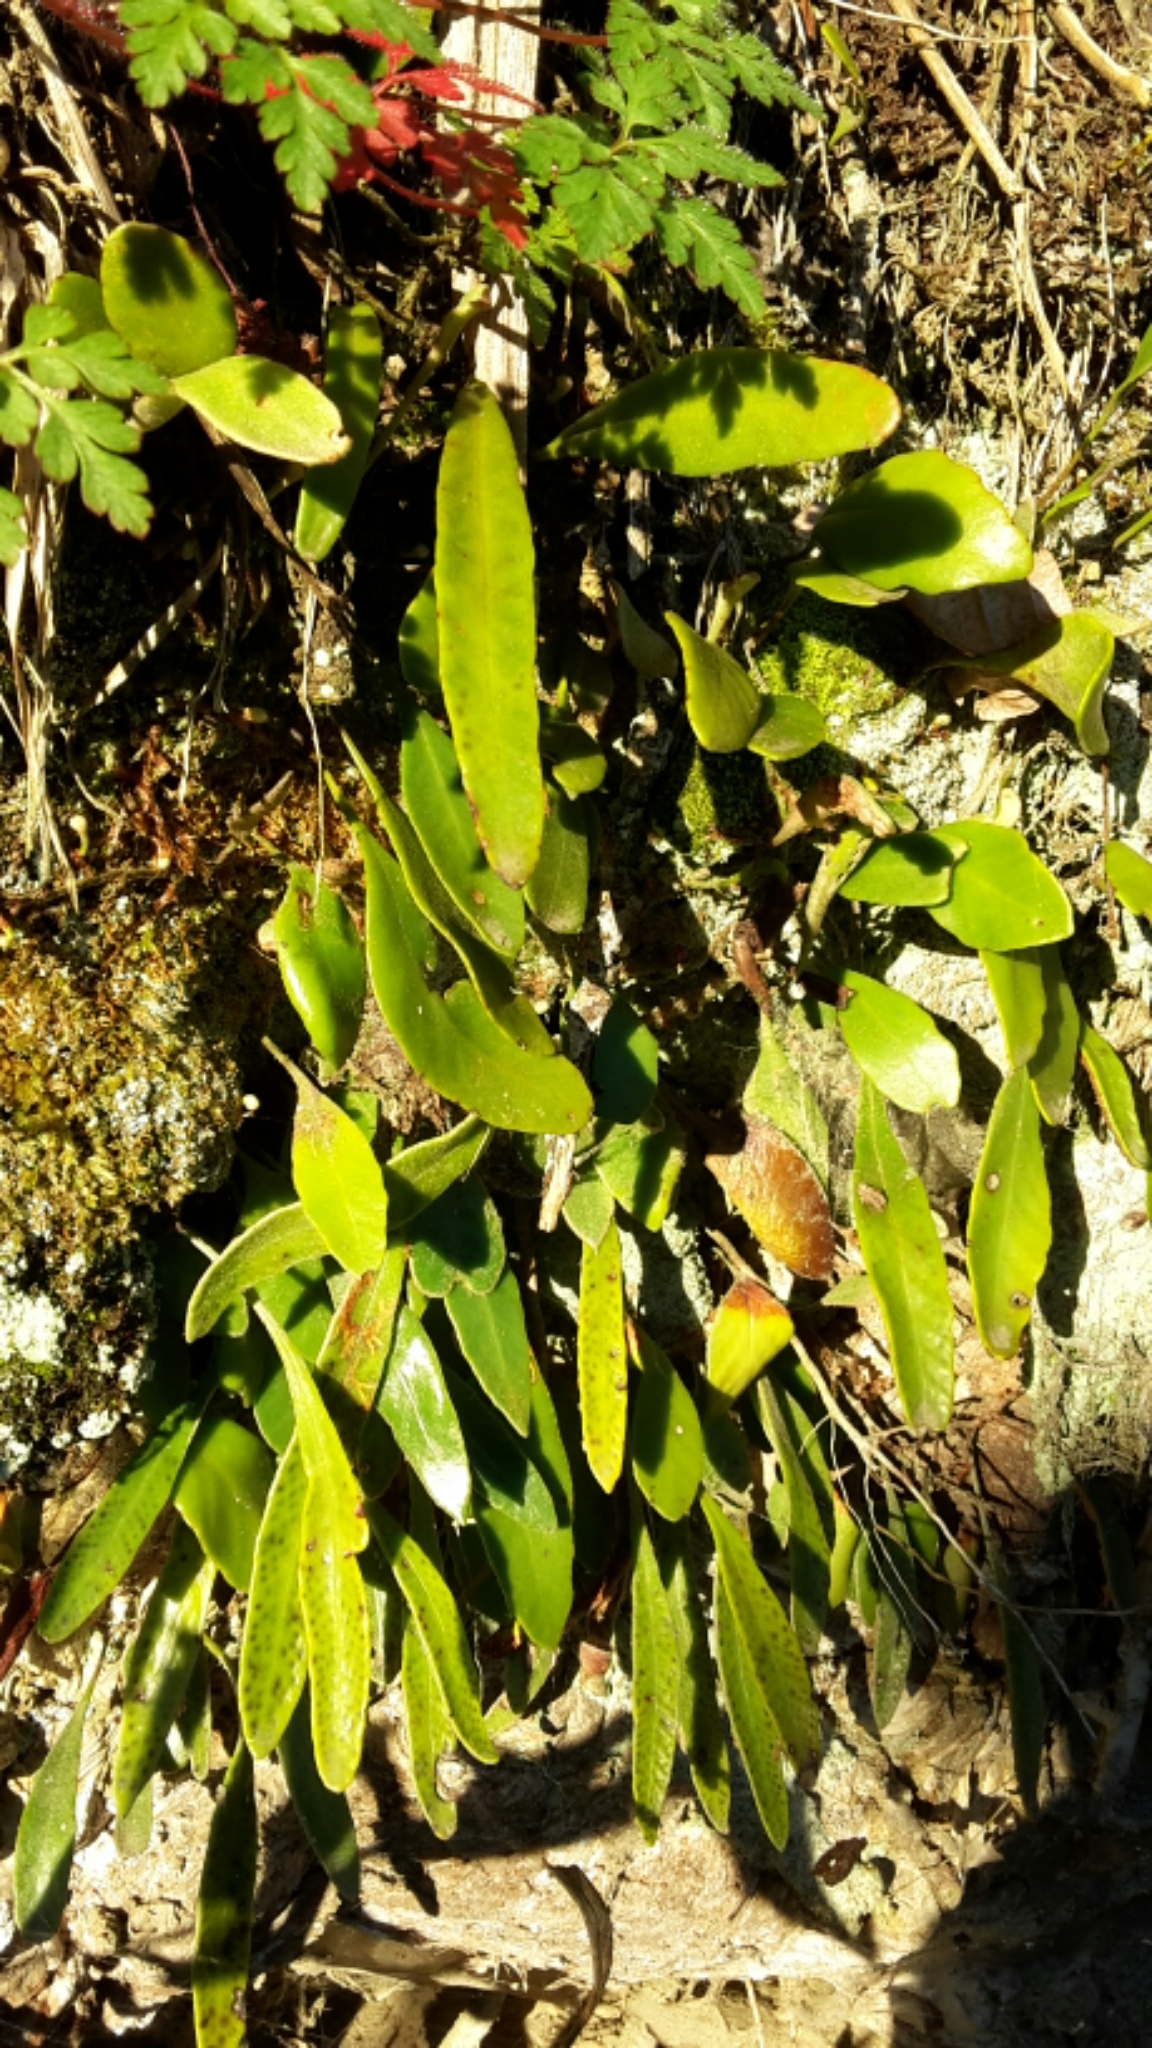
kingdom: Plantae
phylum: Tracheophyta
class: Polypodiopsida
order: Polypodiales
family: Polypodiaceae
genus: Pyrrosia
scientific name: Pyrrosia eleagnifolia
